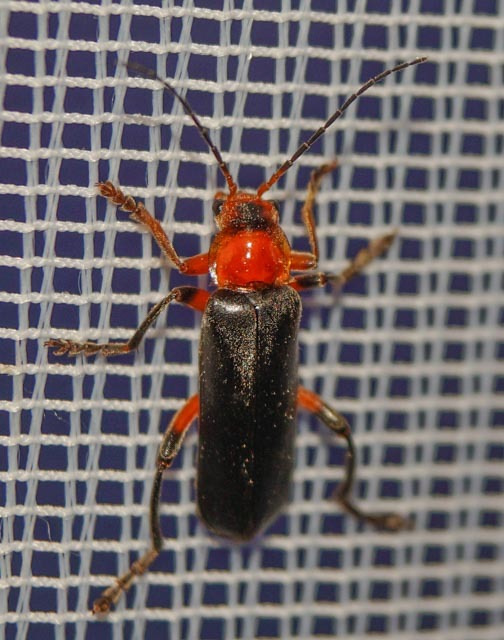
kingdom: Animalia
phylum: Arthropoda
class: Insecta
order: Coleoptera
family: Cantharidae
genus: Cantharis
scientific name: Cantharis livida
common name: Livid soldier beetle
